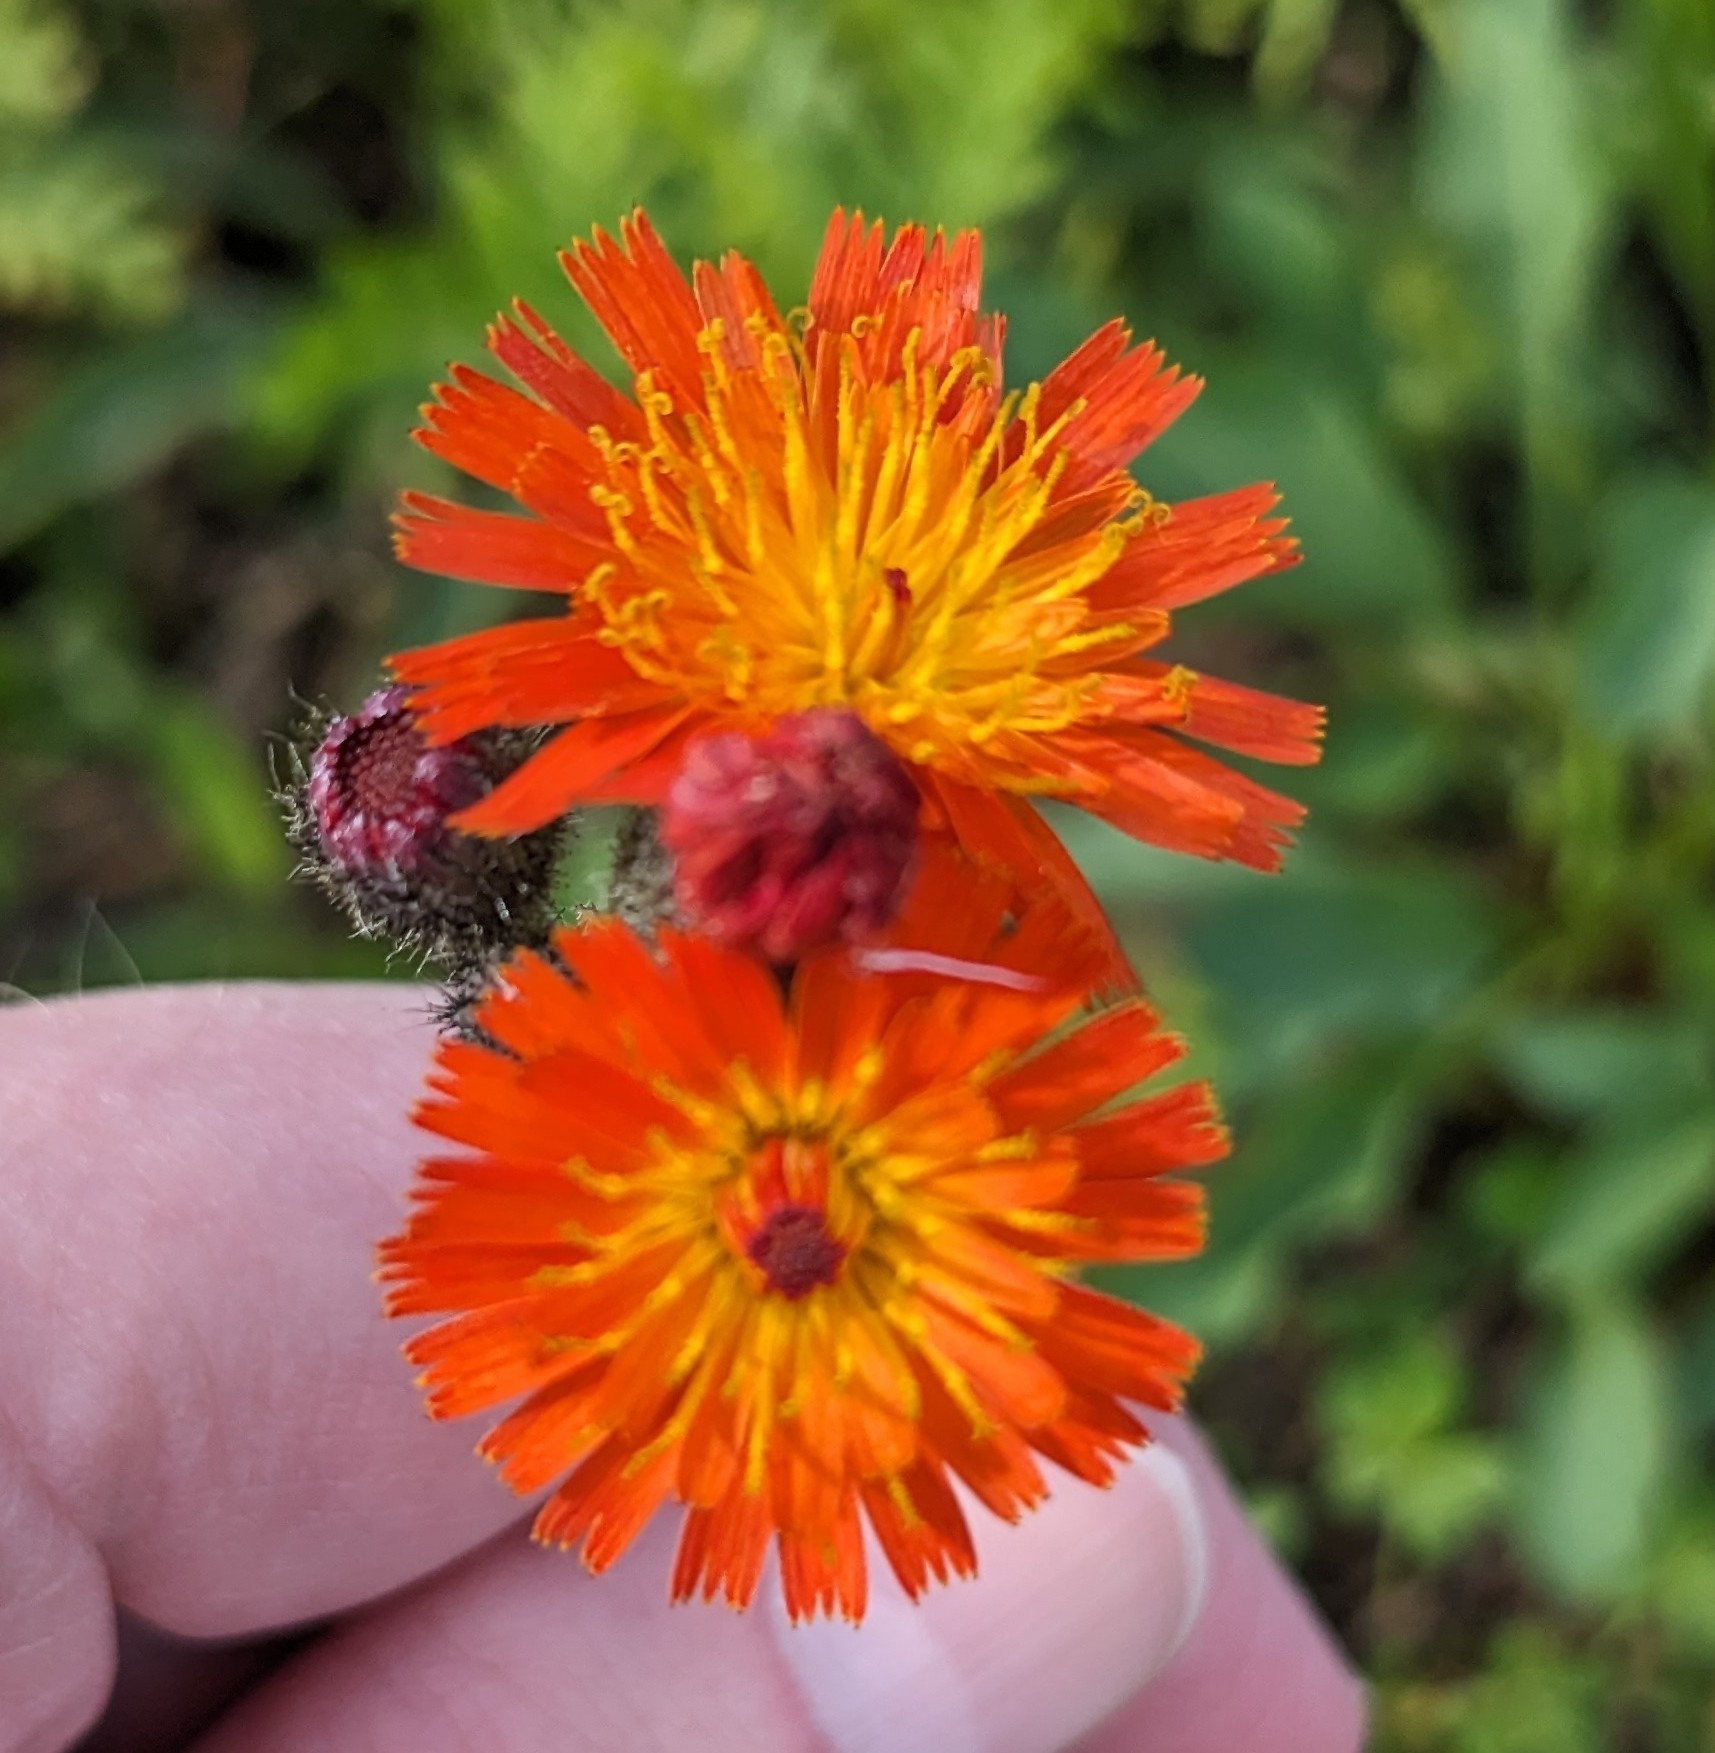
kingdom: Plantae
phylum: Tracheophyta
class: Magnoliopsida
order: Asterales
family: Asteraceae
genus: Pilosella
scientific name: Pilosella aurantiaca
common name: Fox-and-cubs
